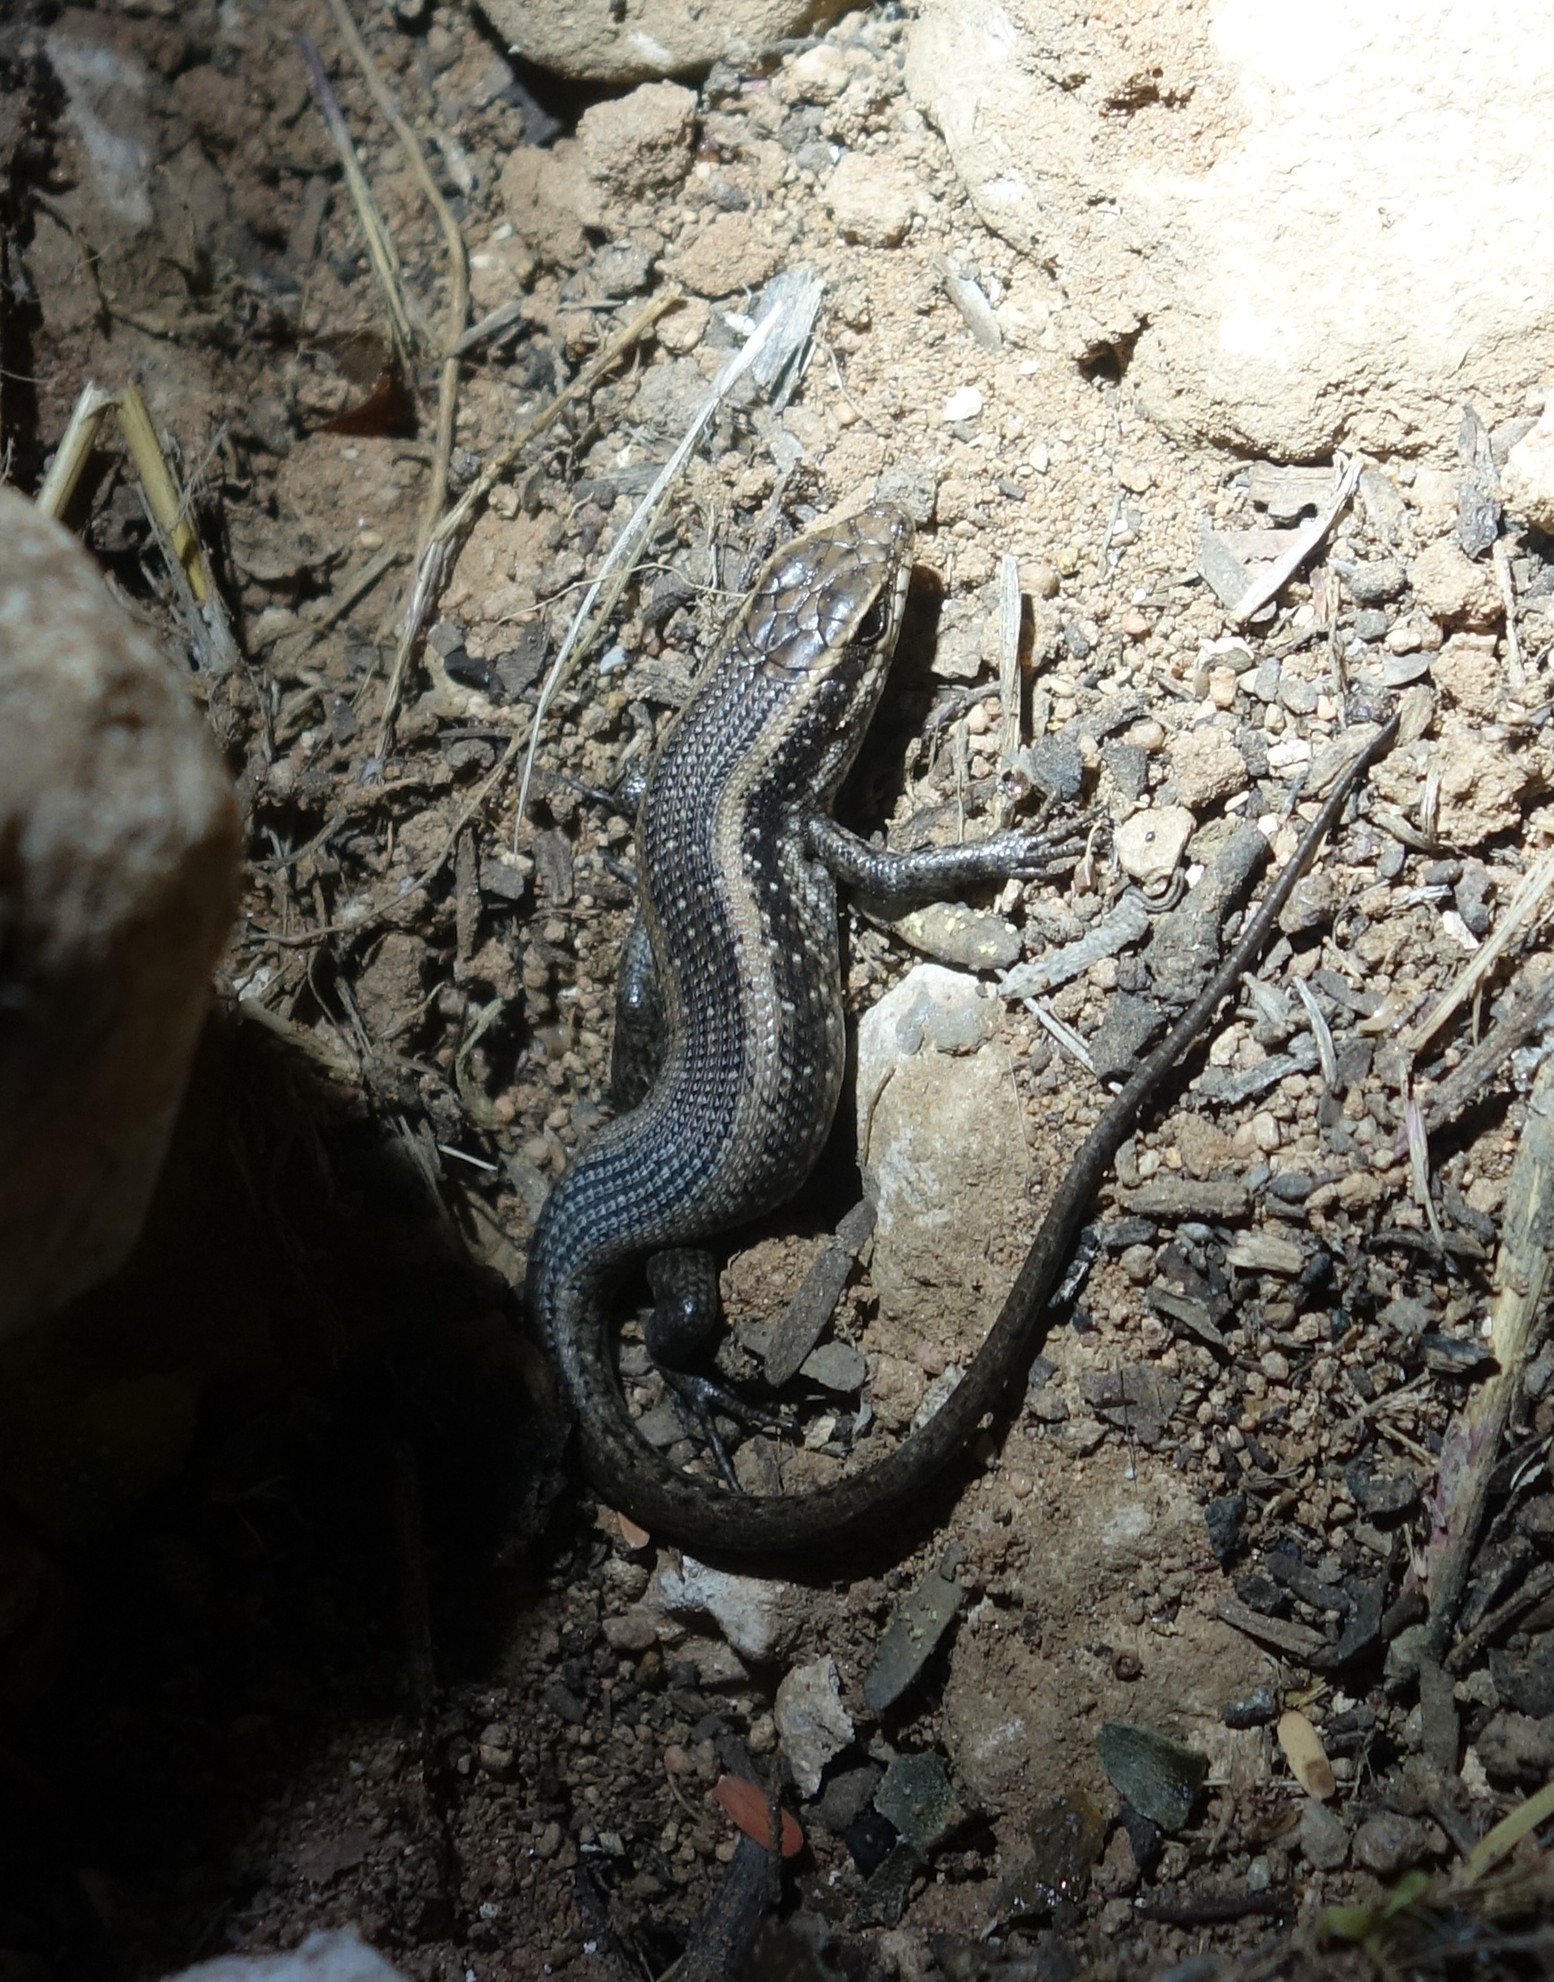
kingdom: Animalia
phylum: Chordata
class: Squamata
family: Scincidae
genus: Trachylepis
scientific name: Trachylepis spilogaster
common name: Kalahari tree skink
